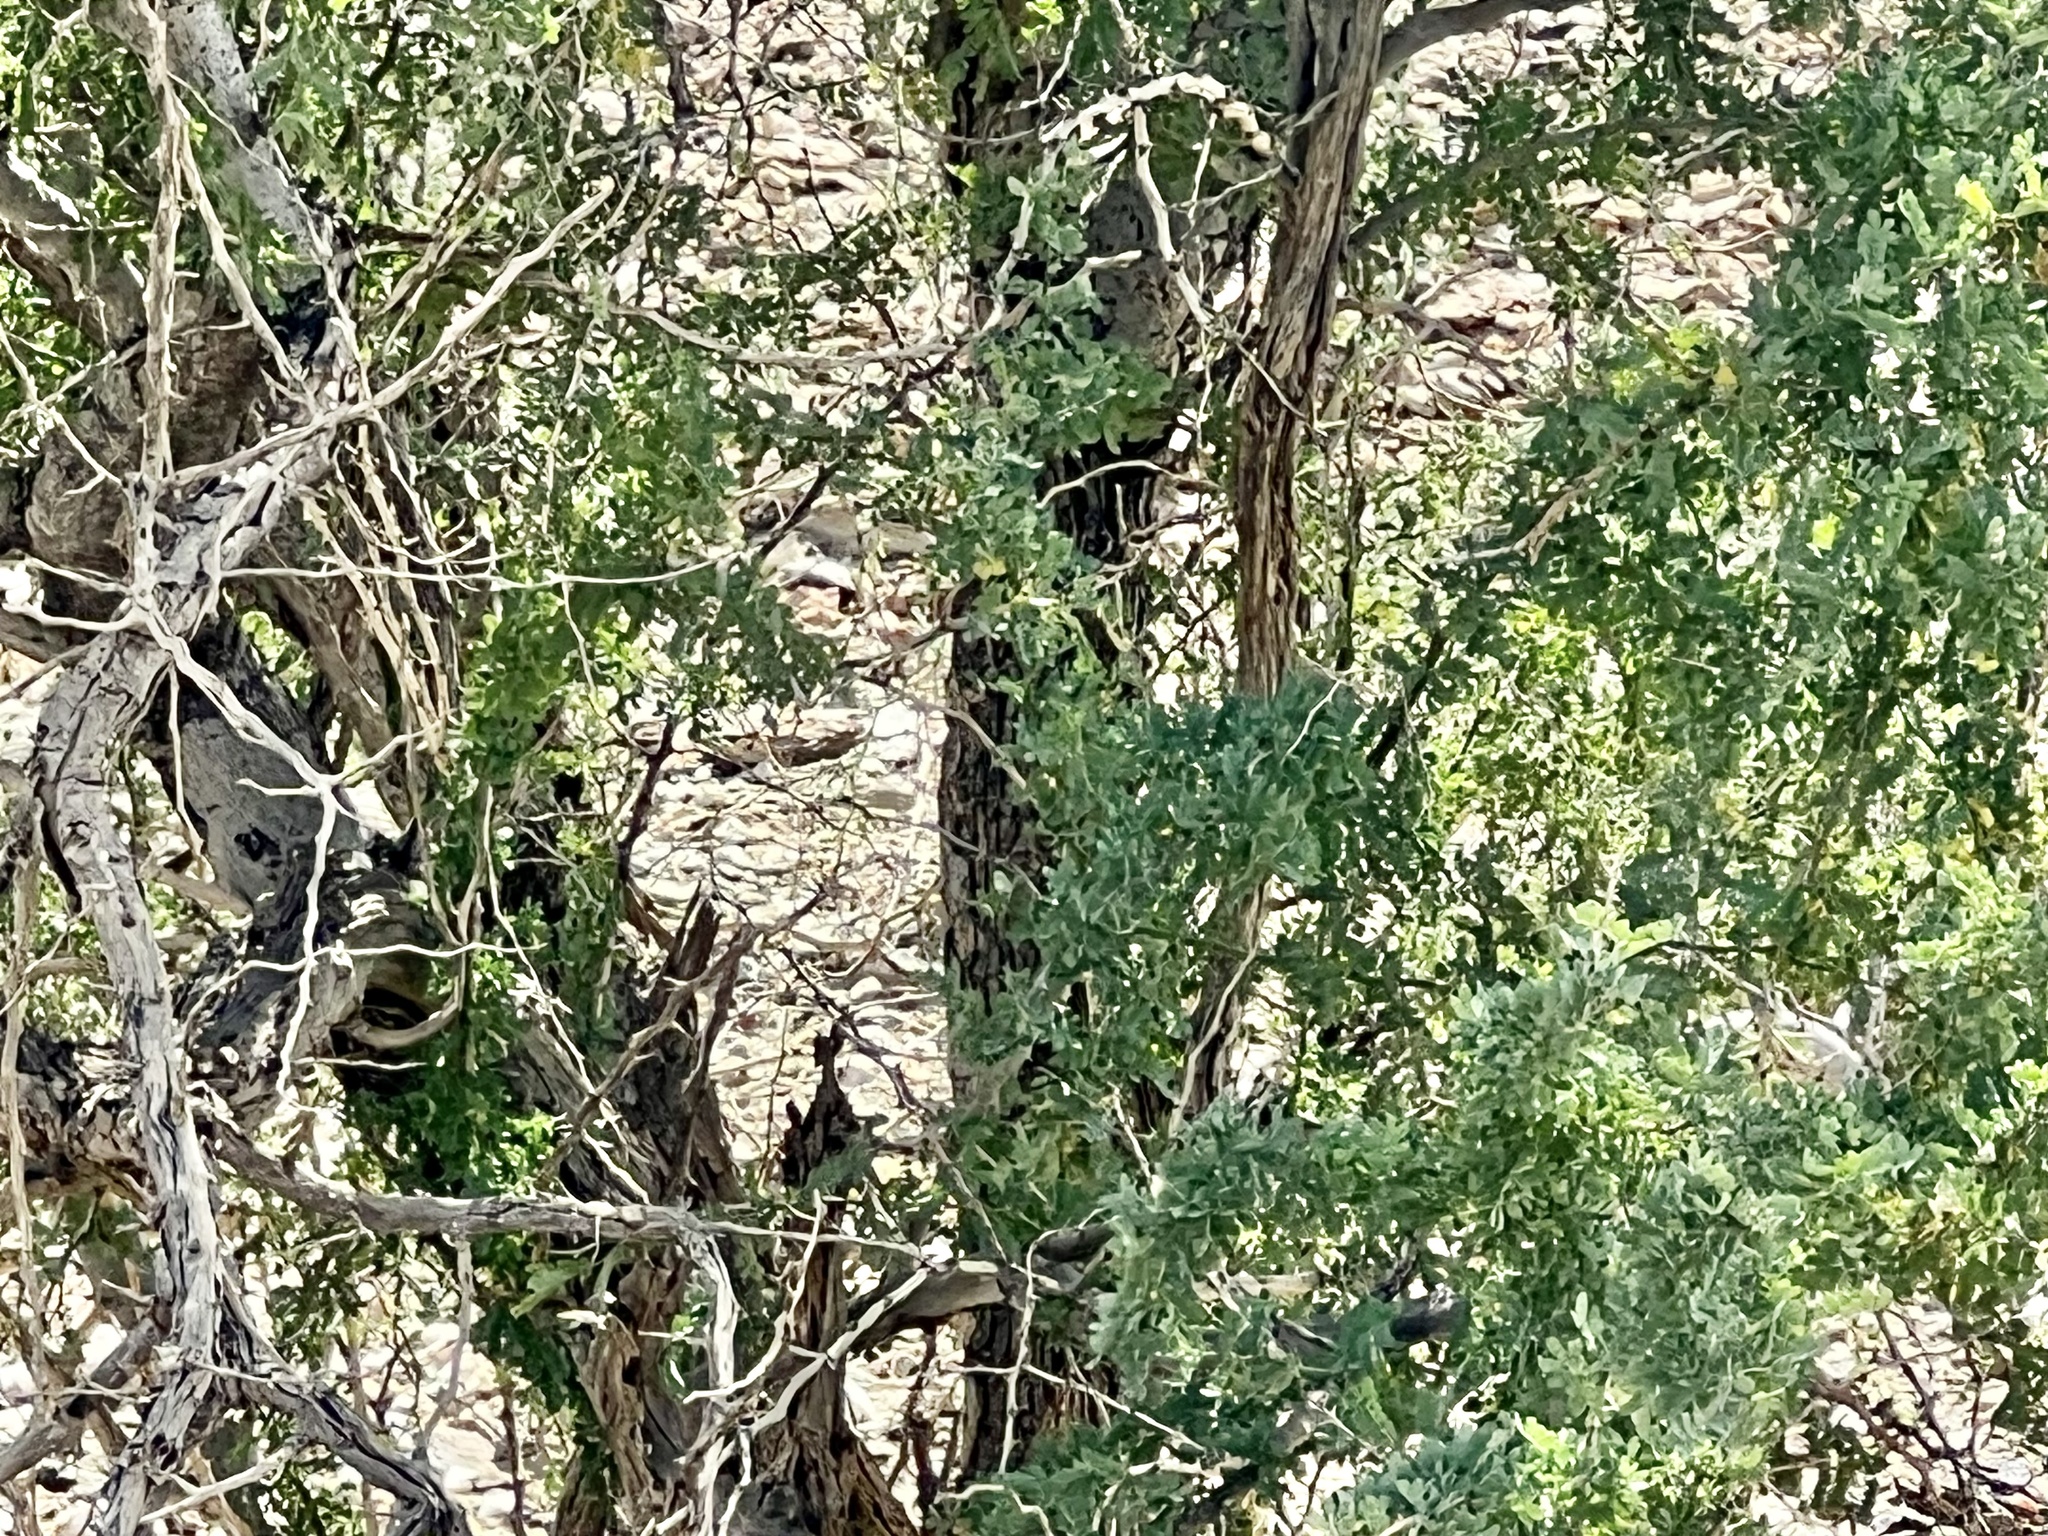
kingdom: Plantae
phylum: Tracheophyta
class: Magnoliopsida
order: Fabales
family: Fabaceae
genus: Olneya
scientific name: Olneya tesota
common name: Desert ironwood
